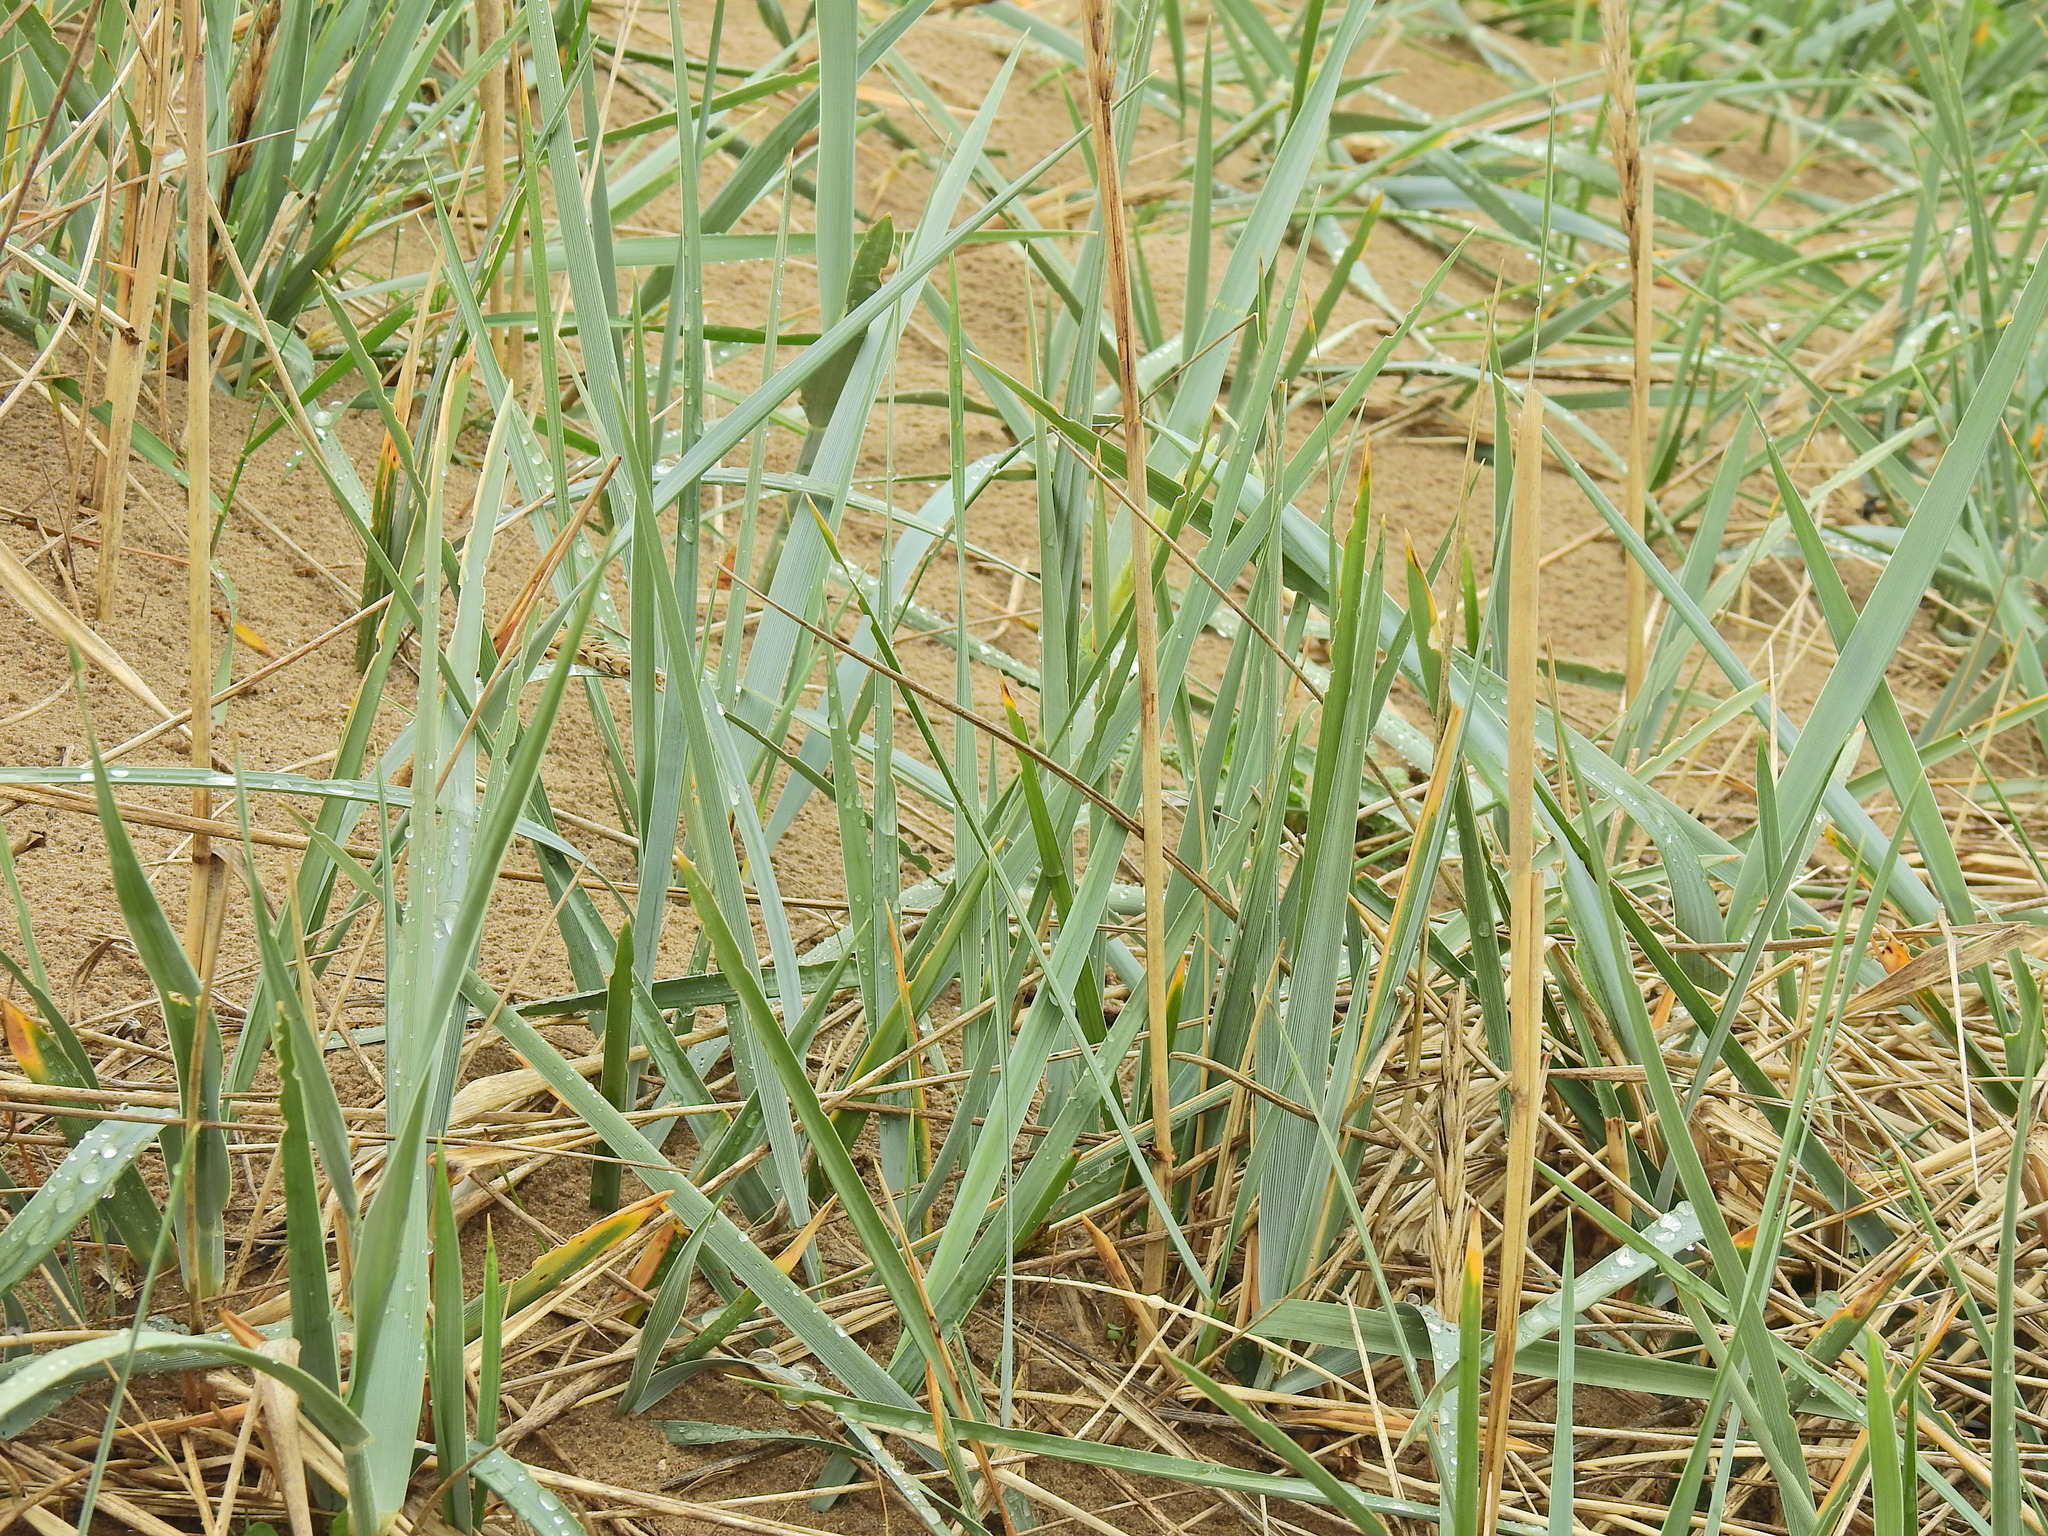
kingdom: Plantae
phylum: Tracheophyta
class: Liliopsida
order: Poales
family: Poaceae
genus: Leymus
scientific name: Leymus arenarius
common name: Lyme-grass
